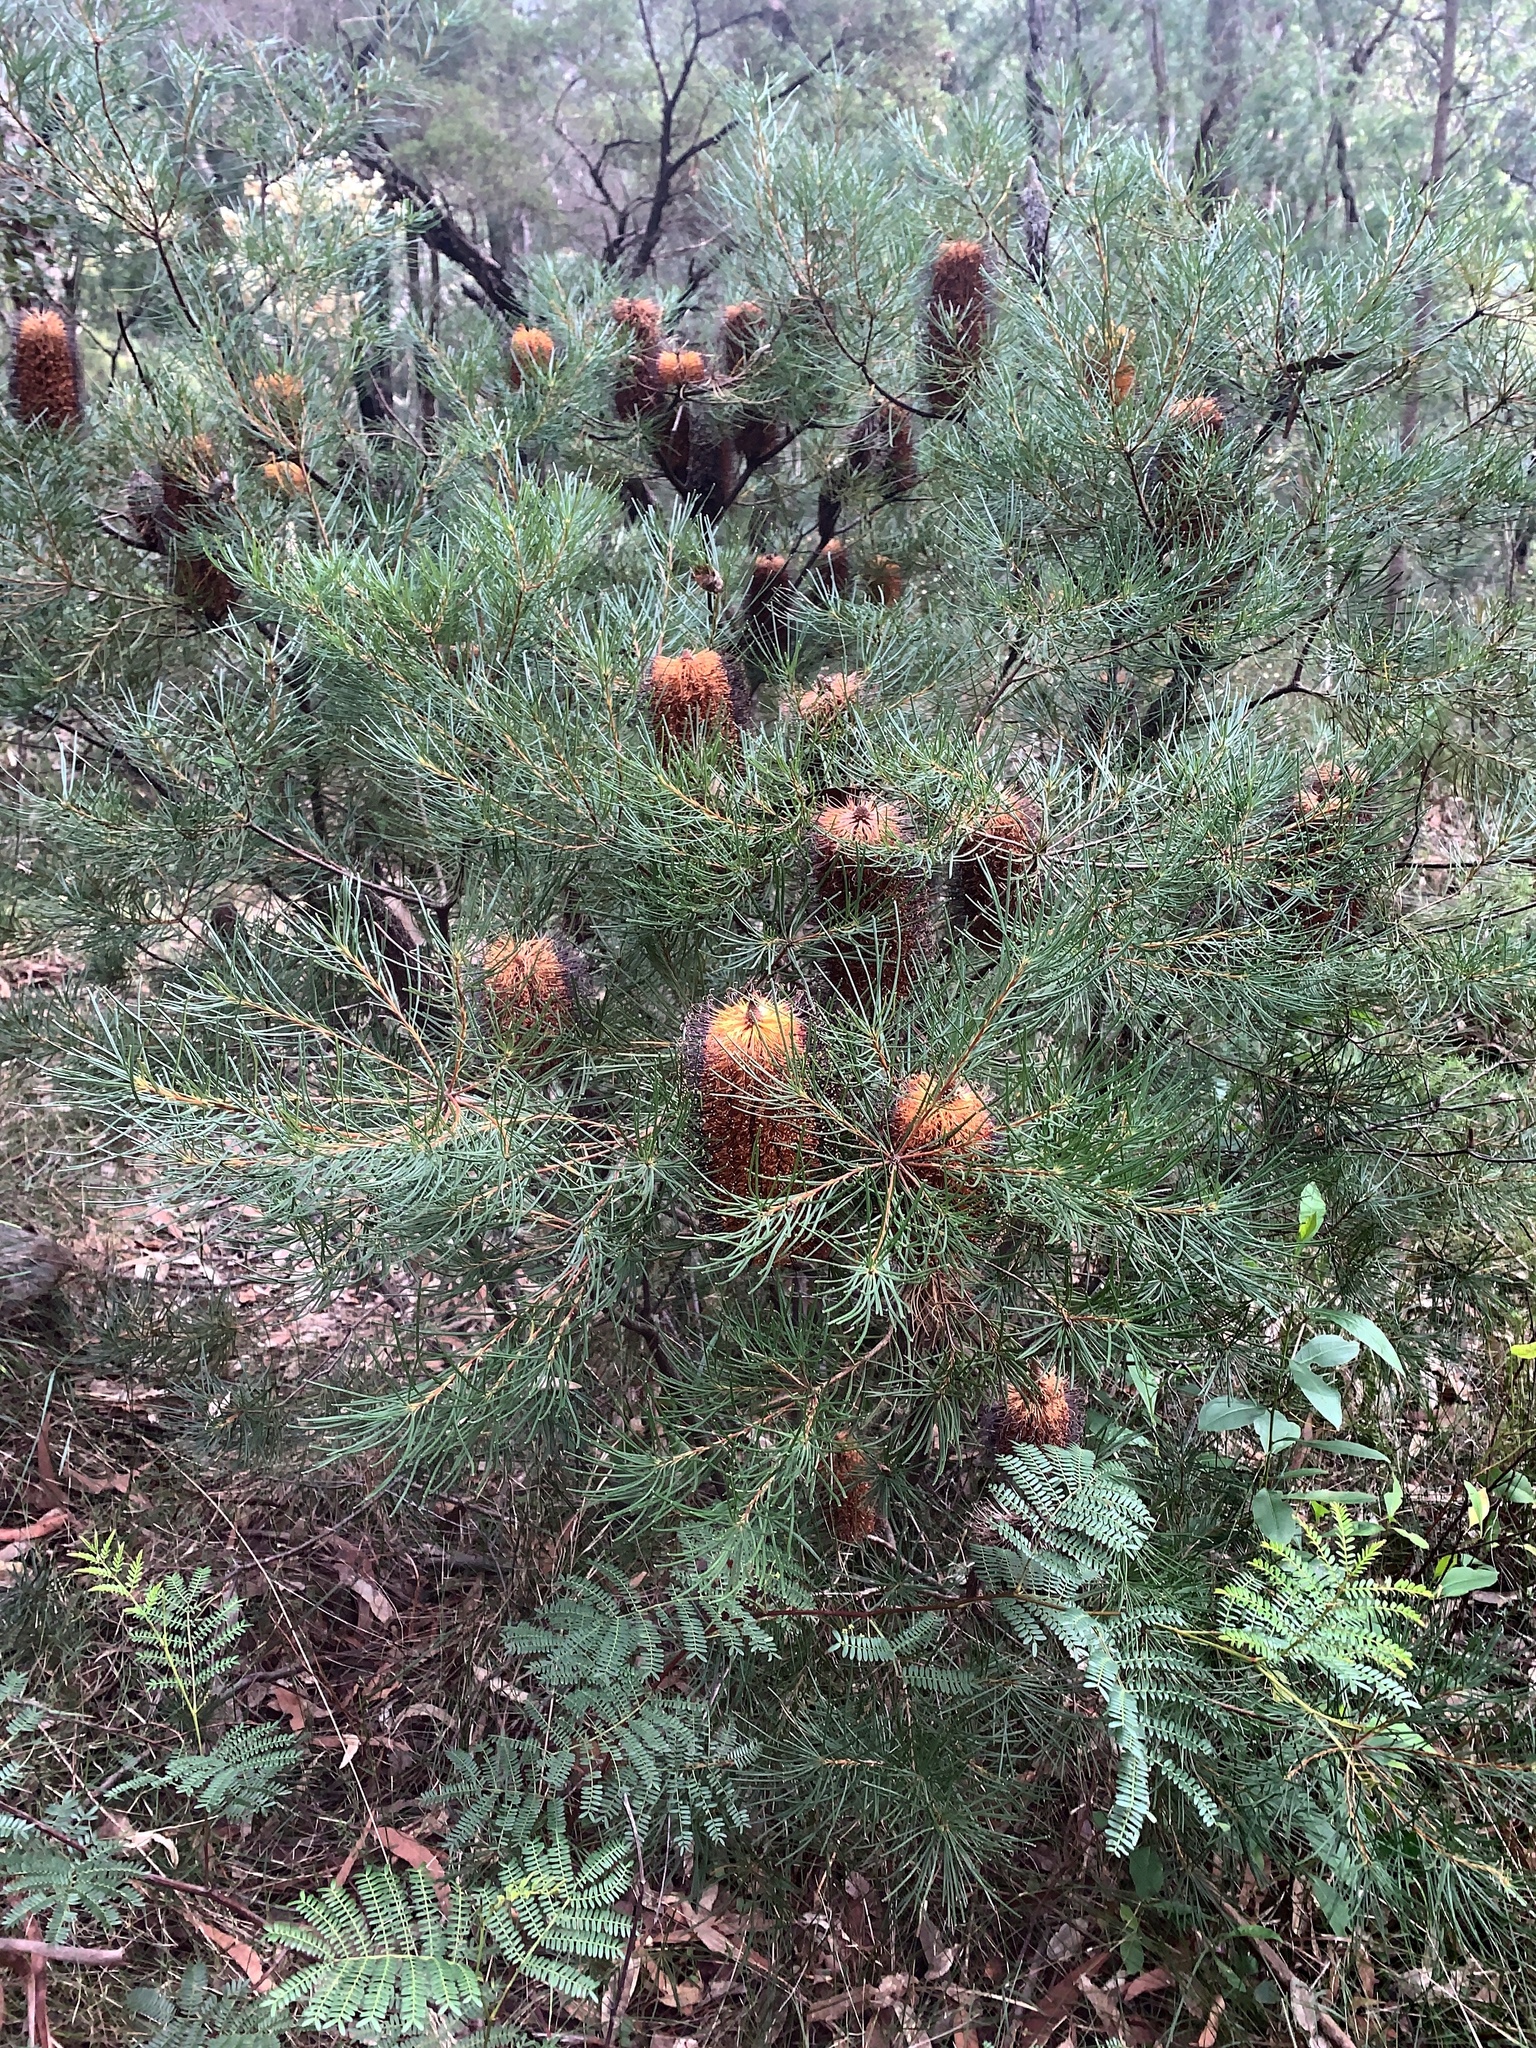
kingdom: Plantae
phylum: Tracheophyta
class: Magnoliopsida
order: Proteales
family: Proteaceae
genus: Banksia
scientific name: Banksia spinulosa
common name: Hairpin banksia
